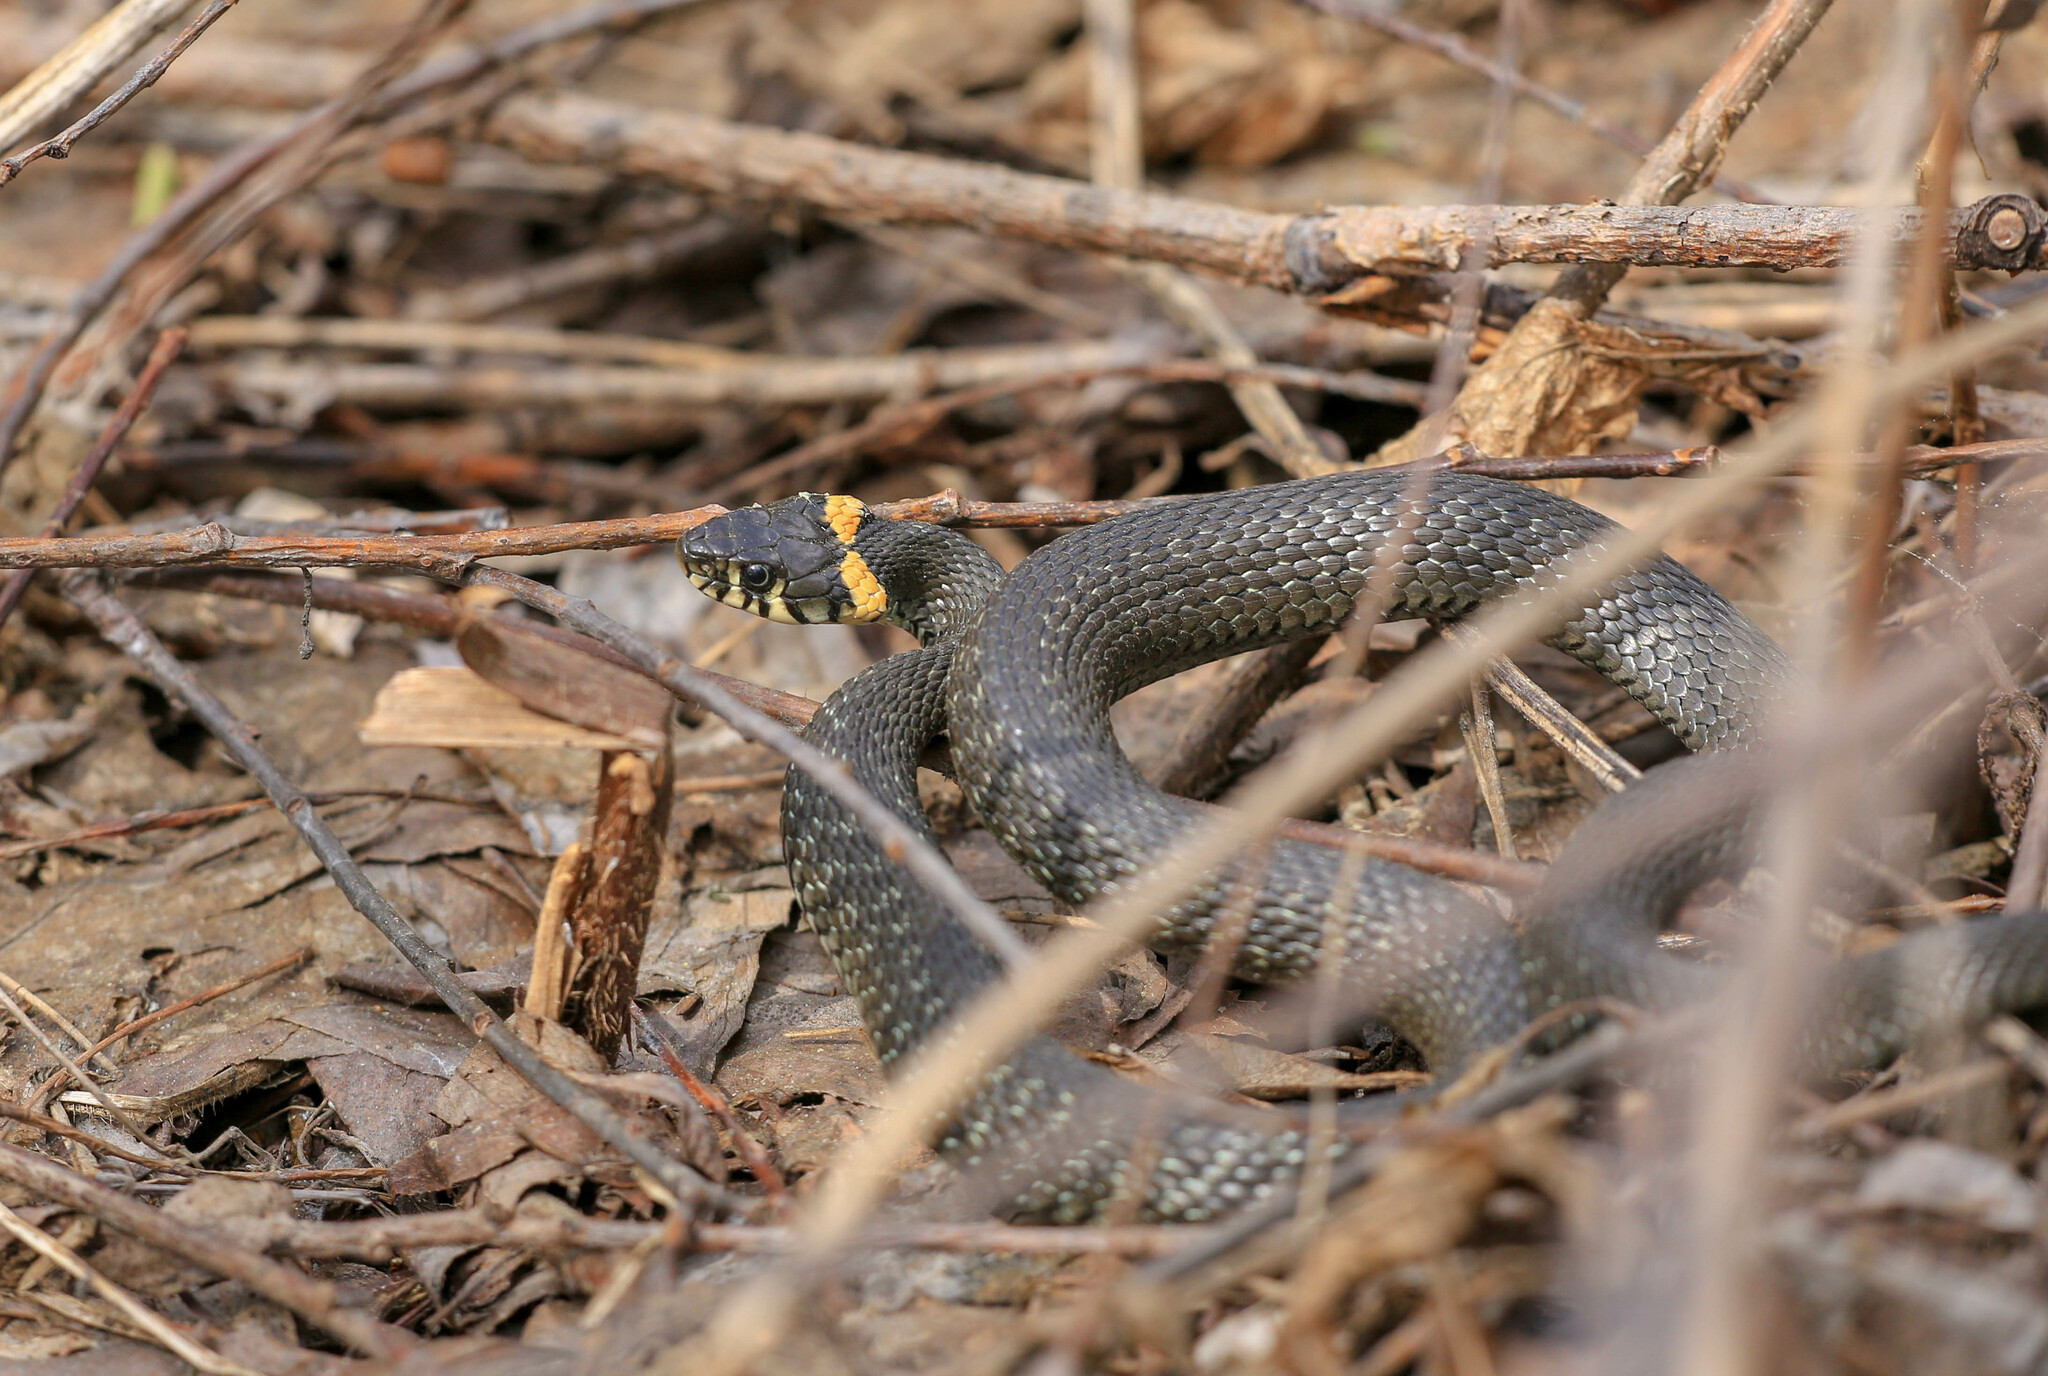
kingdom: Animalia
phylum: Chordata
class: Squamata
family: Colubridae
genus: Natrix
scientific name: Natrix natrix
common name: Grass snake
